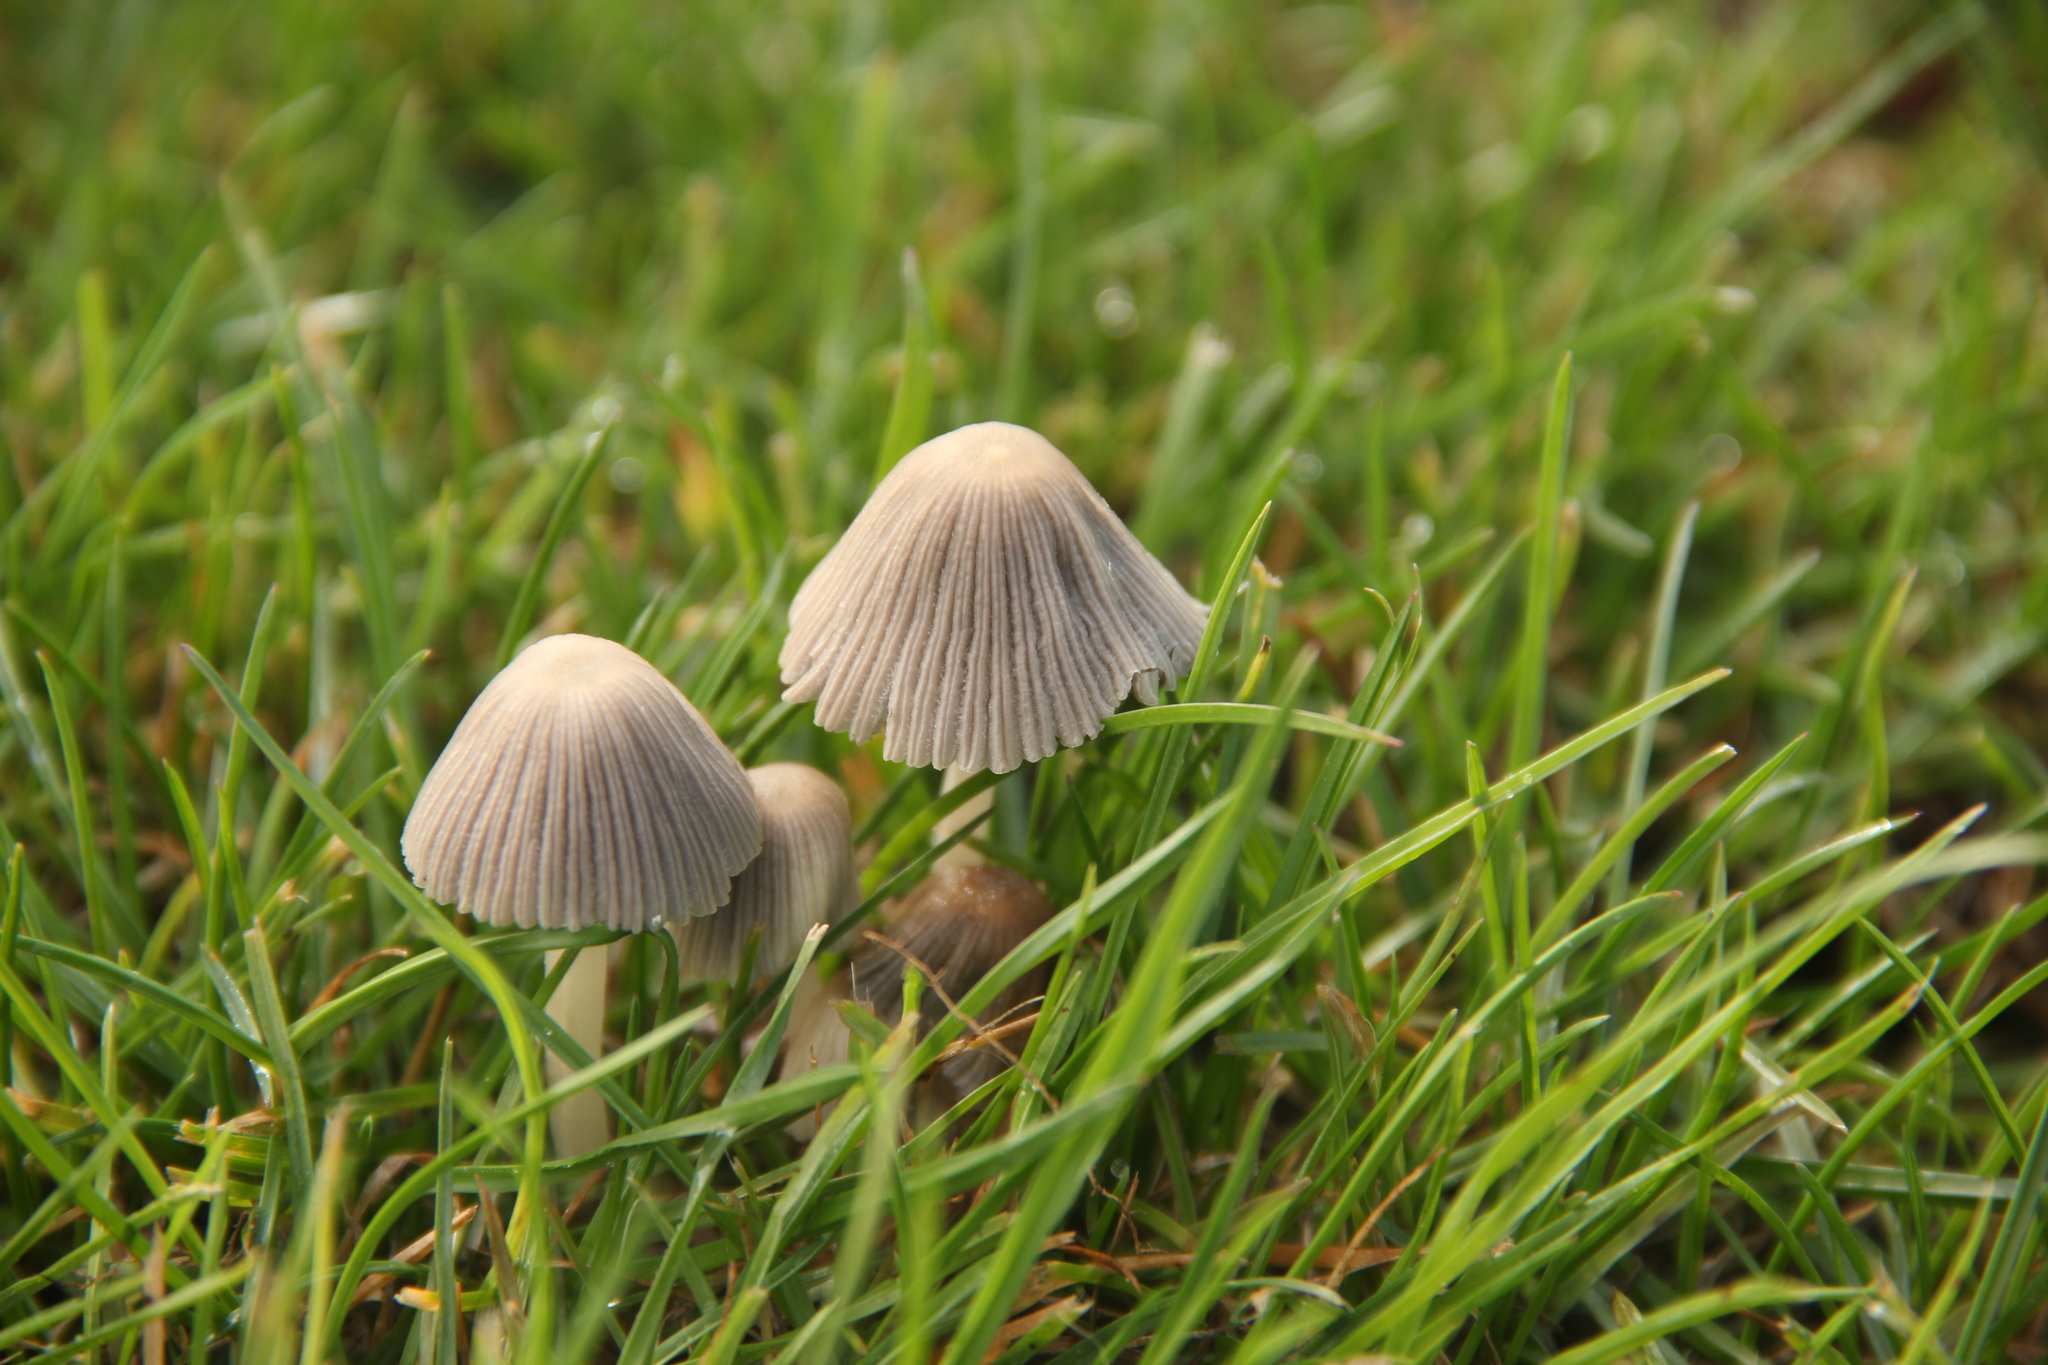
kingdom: Fungi
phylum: Basidiomycota
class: Agaricomycetes
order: Agaricales
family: Psathyrellaceae
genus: Coprinellus
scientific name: Coprinellus disseminatus
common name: Fairies' bonnets
